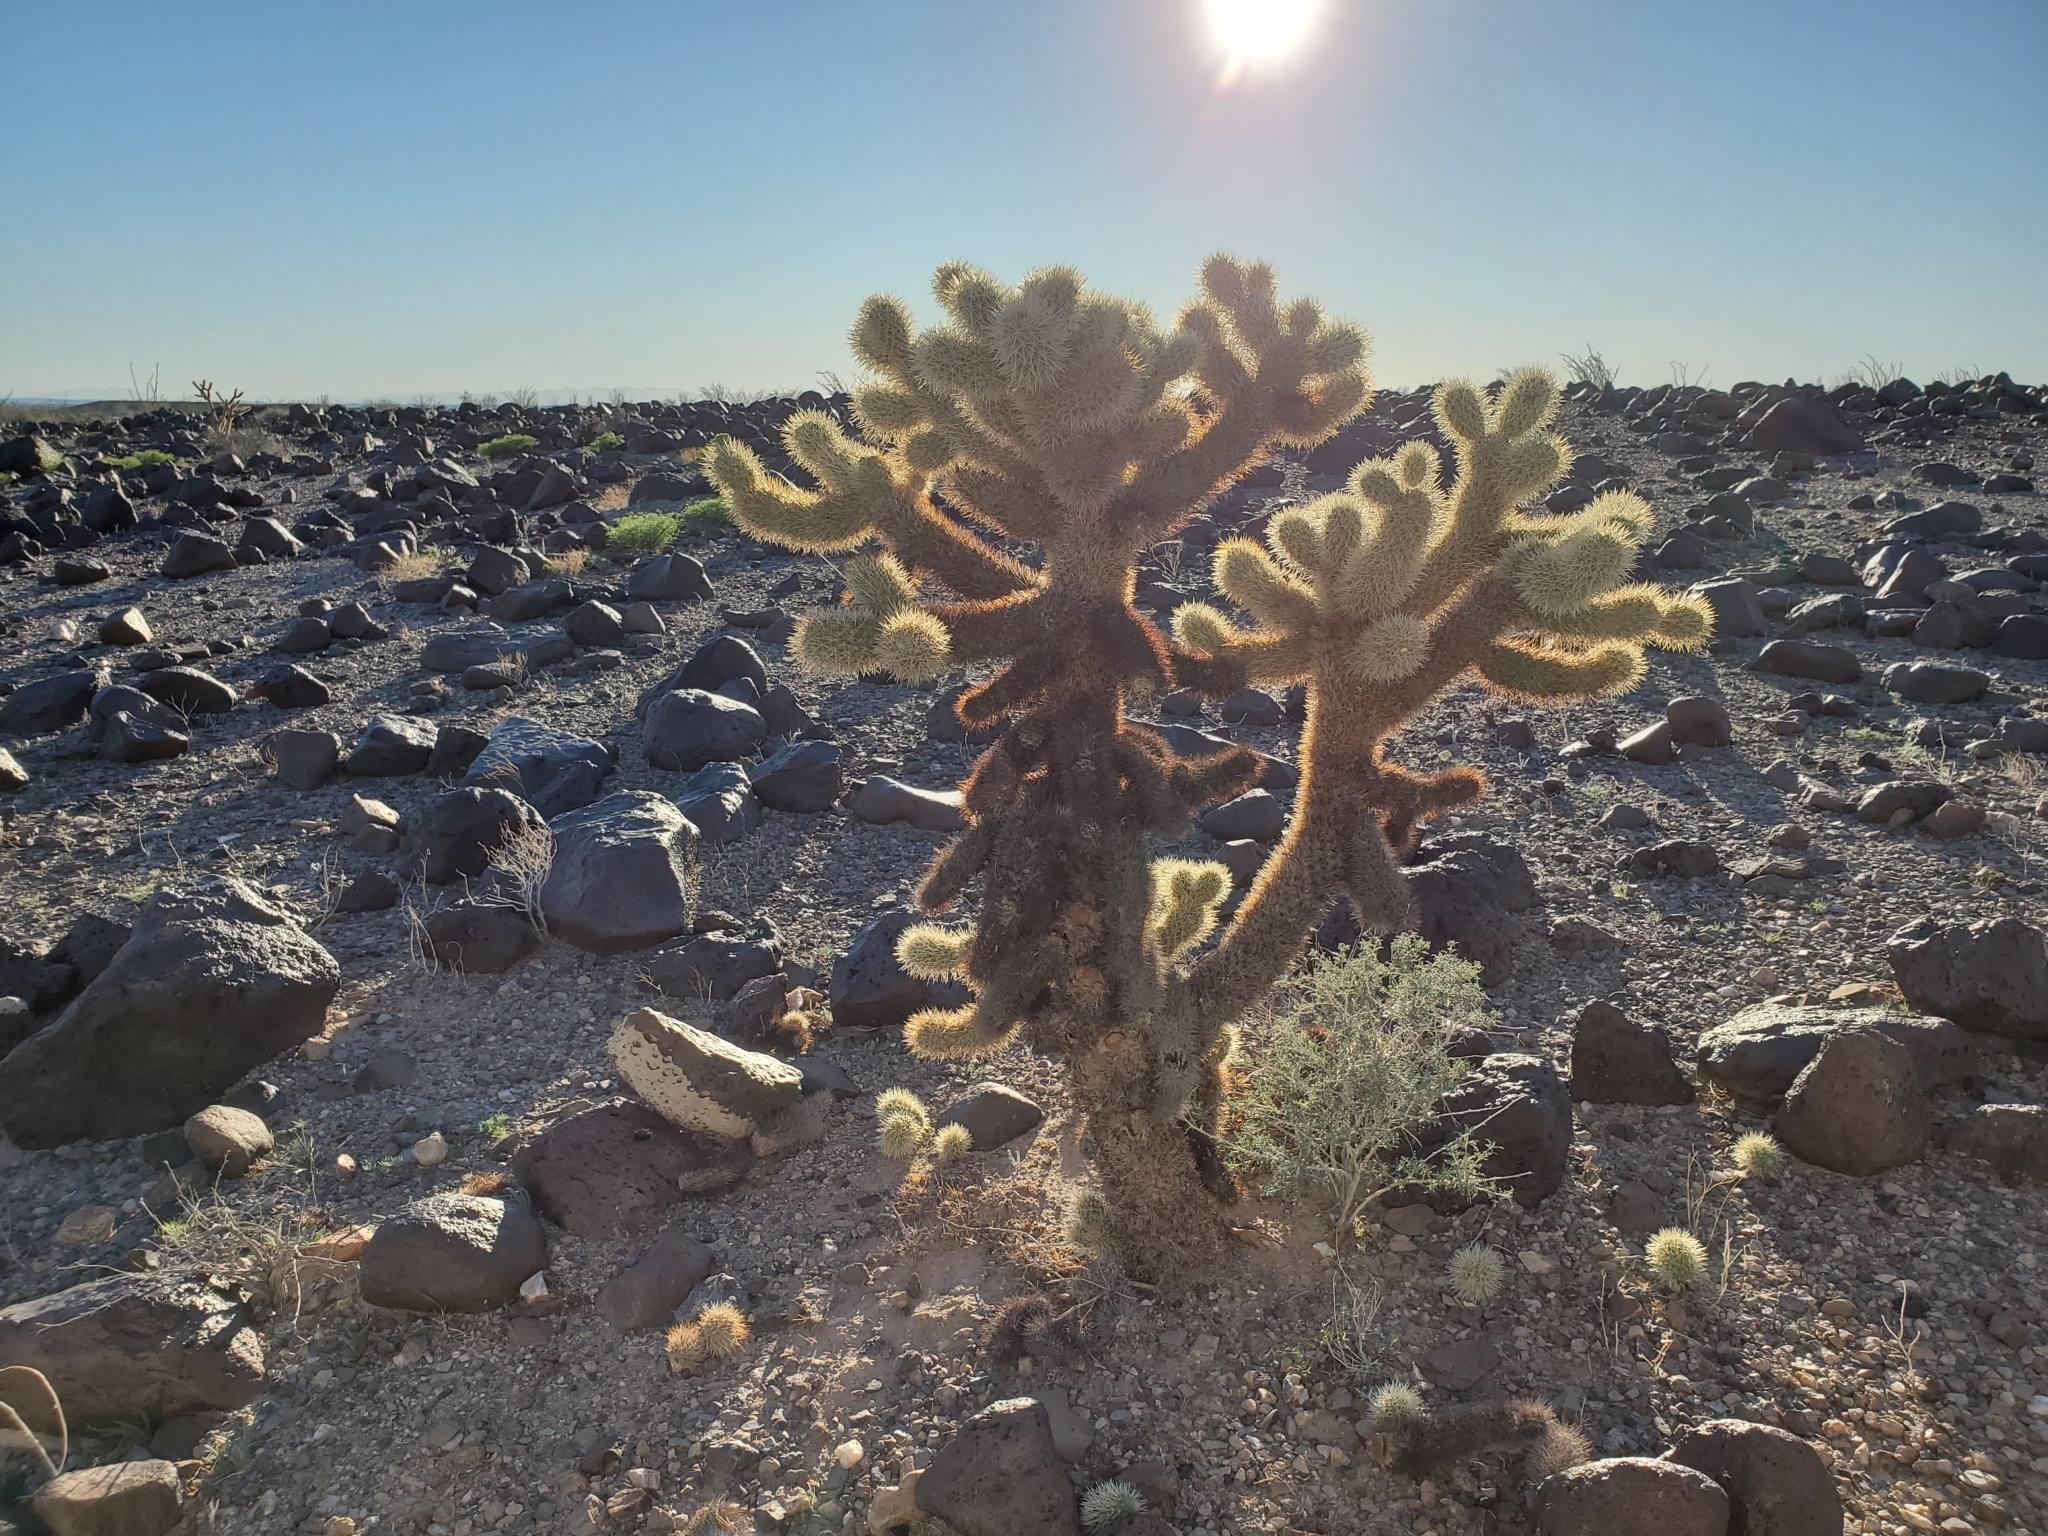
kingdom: Plantae
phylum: Tracheophyta
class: Magnoliopsida
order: Caryophyllales
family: Cactaceae
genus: Cylindropuntia
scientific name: Cylindropuntia fosbergii
